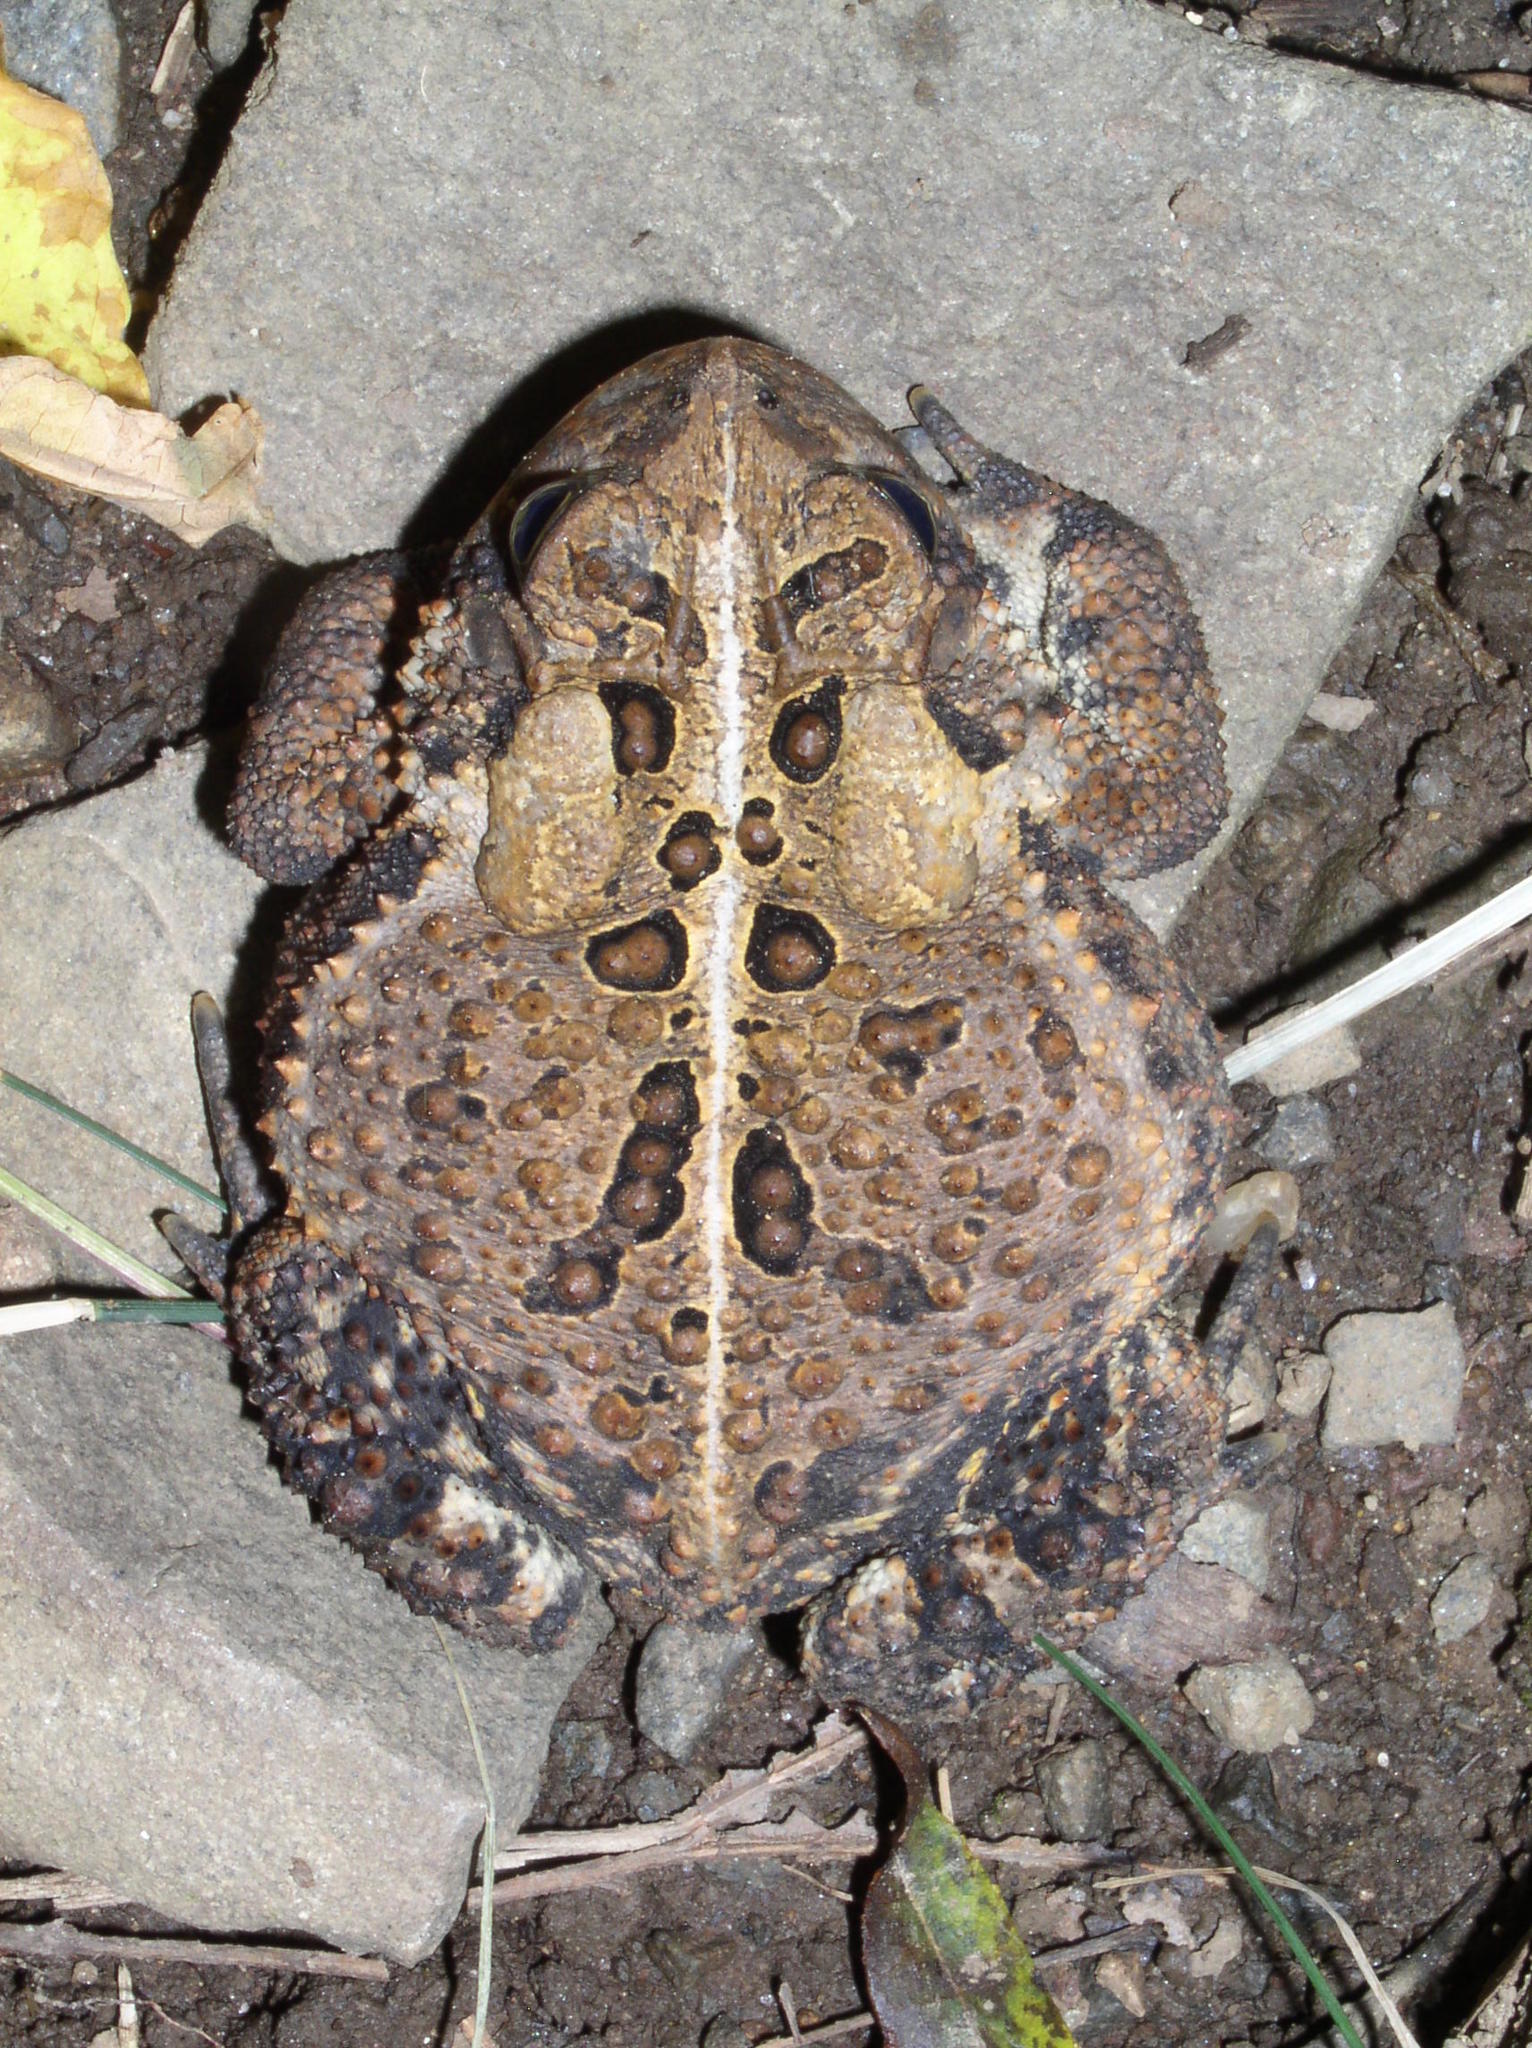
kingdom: Animalia
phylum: Chordata
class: Amphibia
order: Anura
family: Bufonidae
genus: Anaxyrus
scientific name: Anaxyrus americanus
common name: American toad
